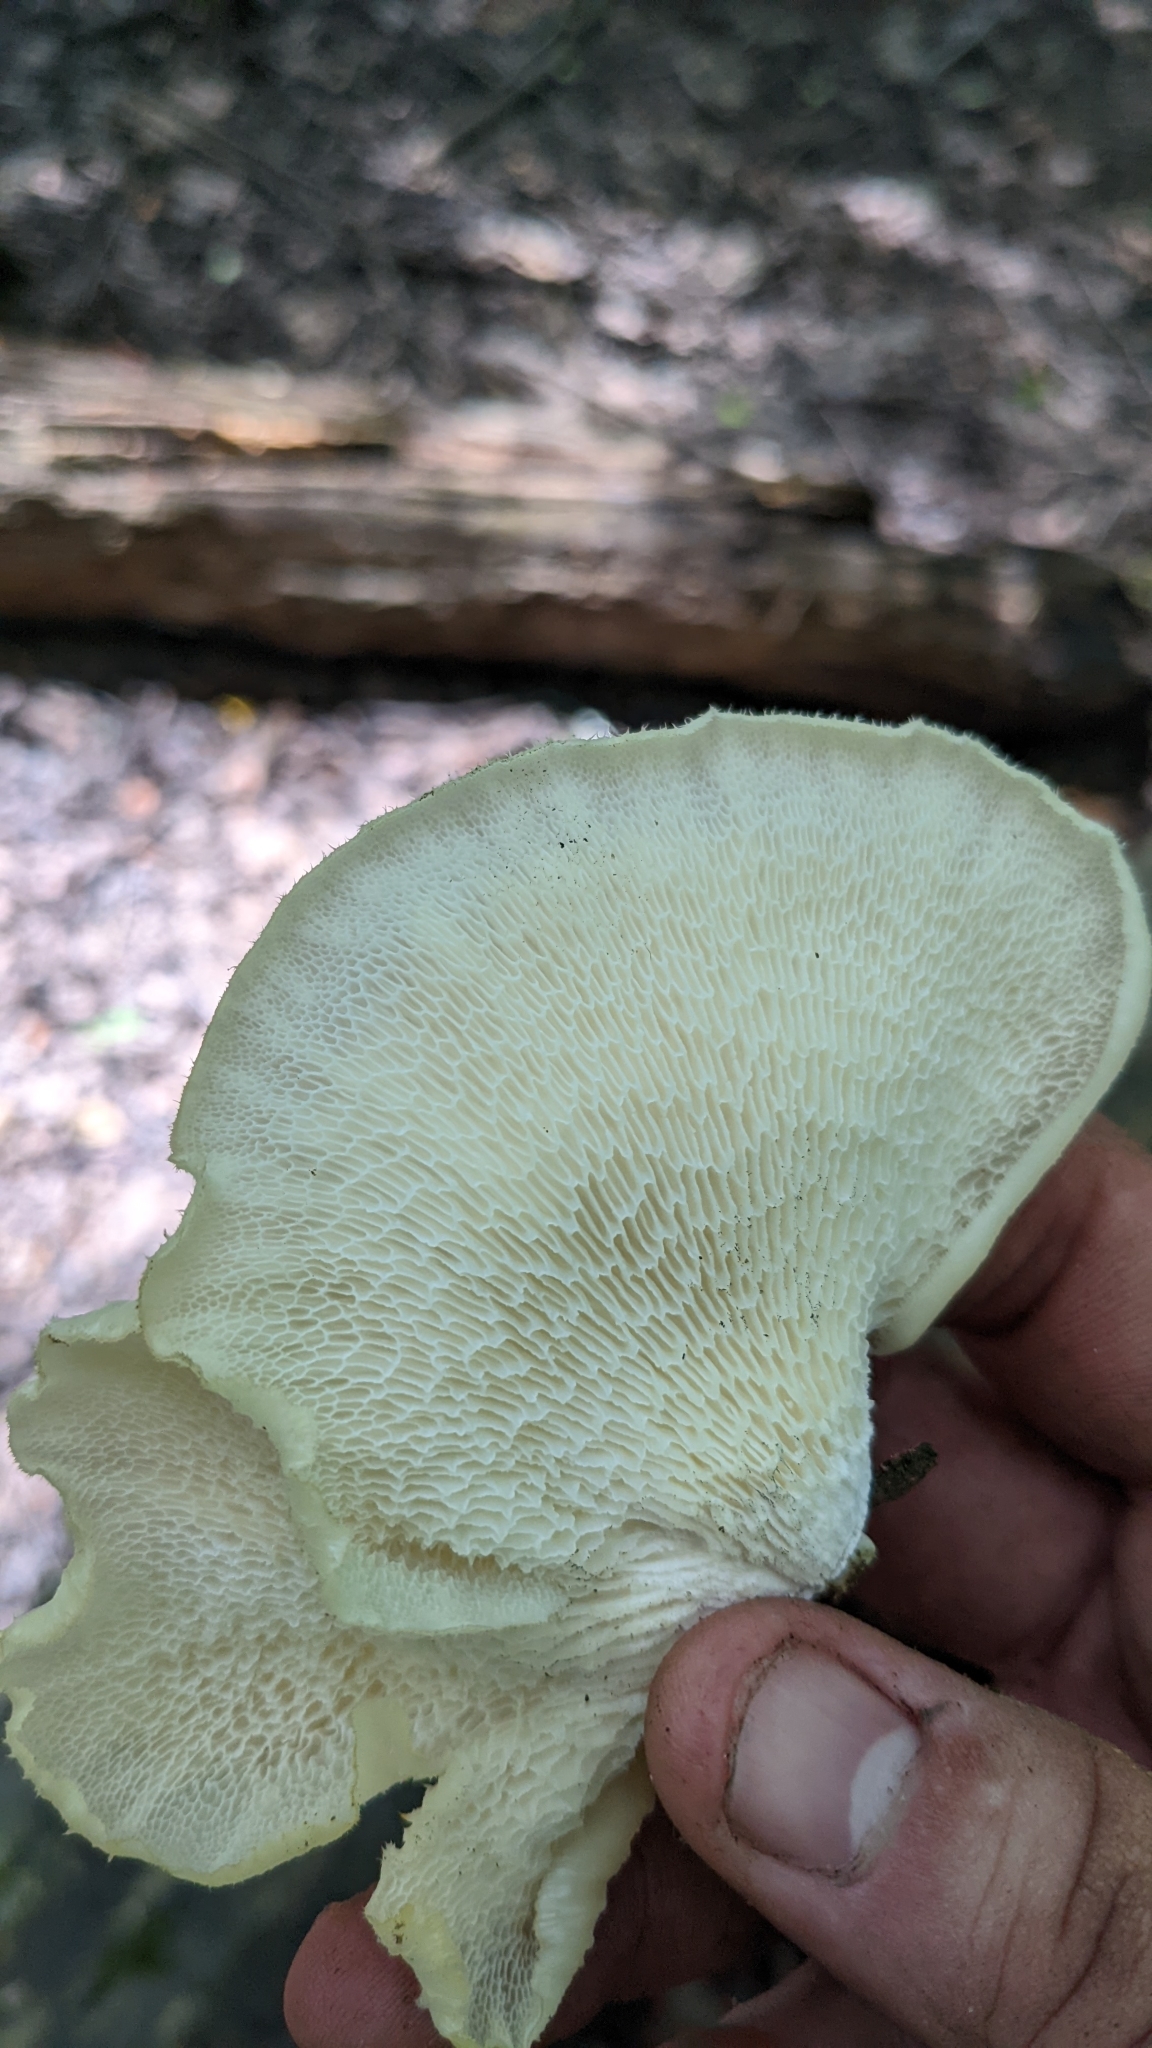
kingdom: Fungi
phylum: Basidiomycota
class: Agaricomycetes
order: Polyporales
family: Polyporaceae
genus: Favolus
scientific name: Favolus tenuiculus
